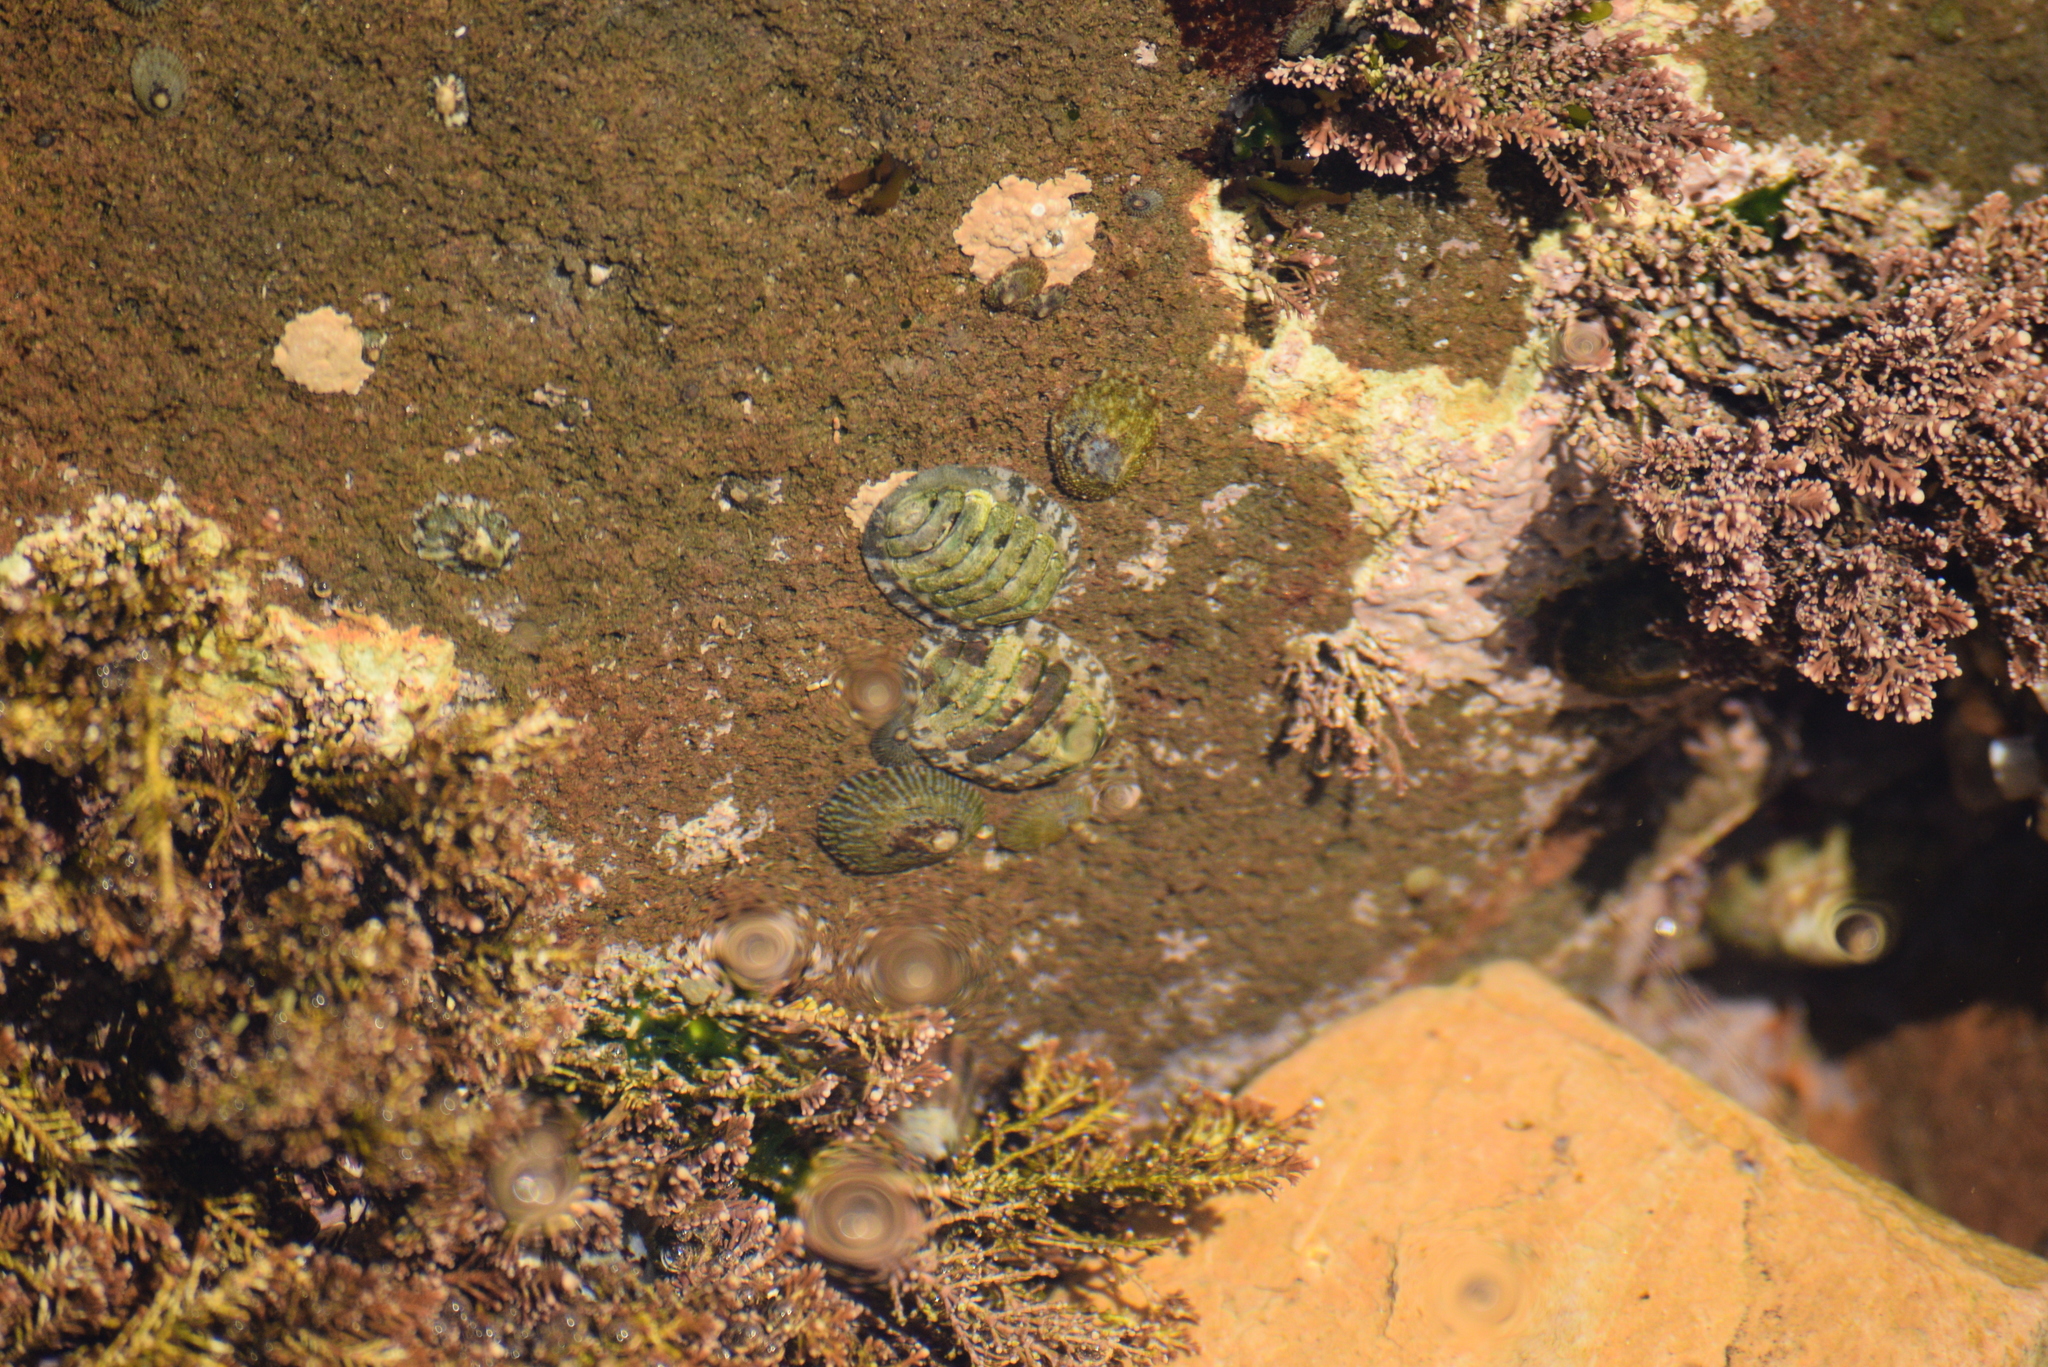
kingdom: Animalia
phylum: Mollusca
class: Polyplacophora
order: Chitonida
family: Tonicellidae
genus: Cyanoplax
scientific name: Cyanoplax hartwegii
